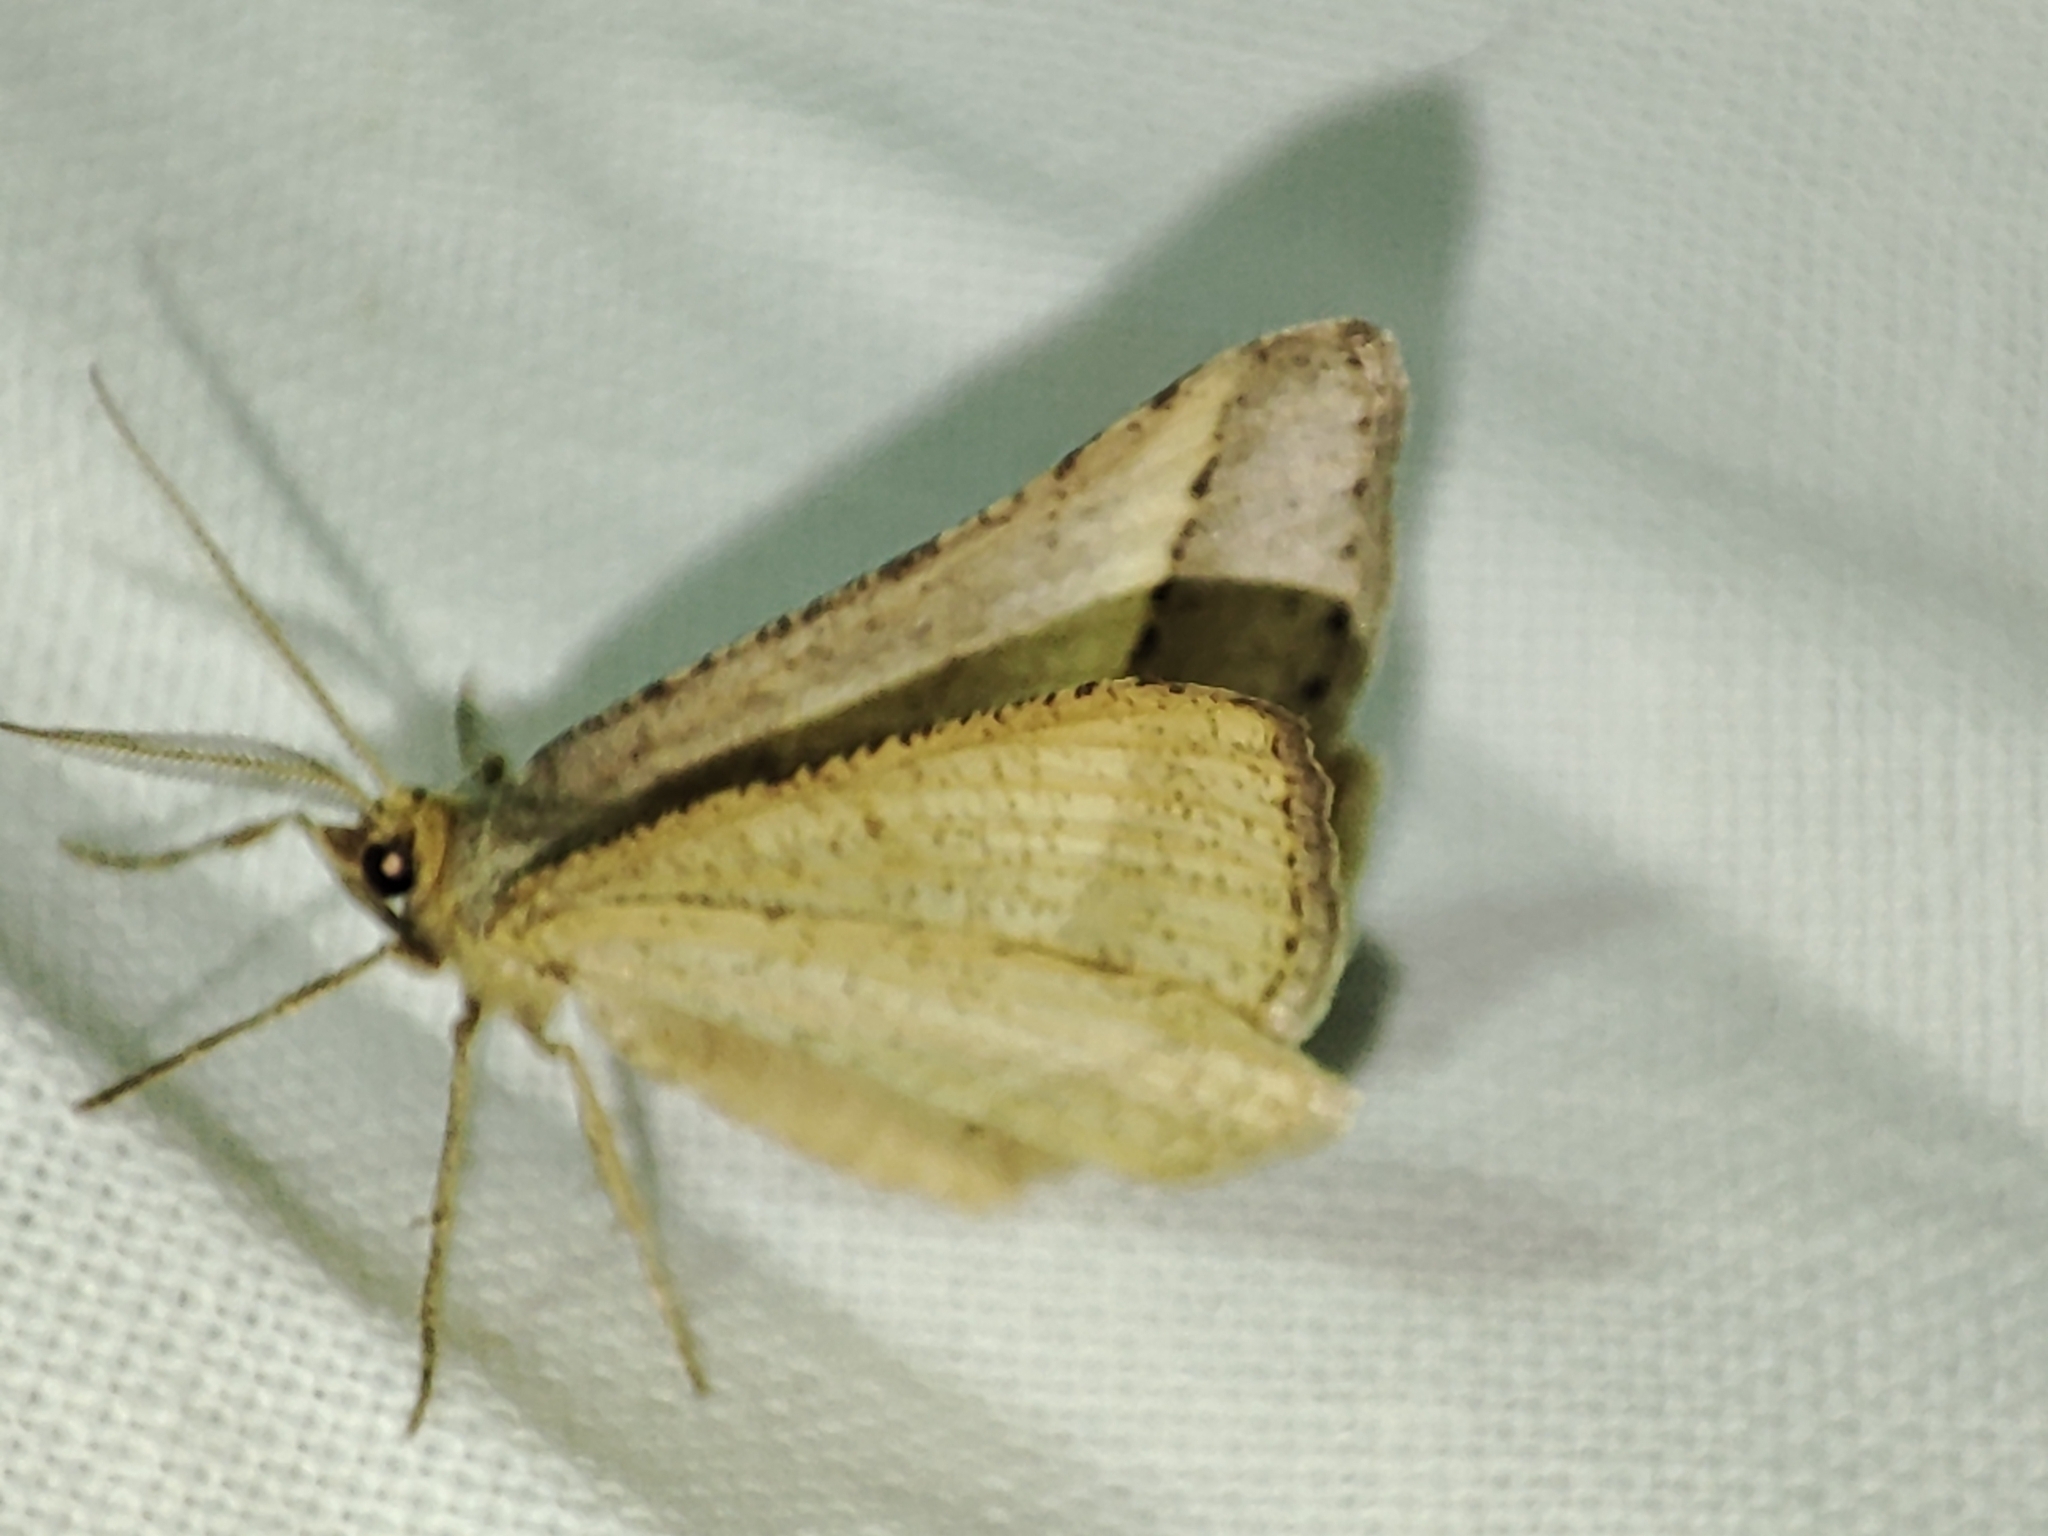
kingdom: Animalia
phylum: Arthropoda
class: Insecta
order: Lepidoptera
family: Geometridae
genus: Tephrina
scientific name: Tephrina arenacearia
